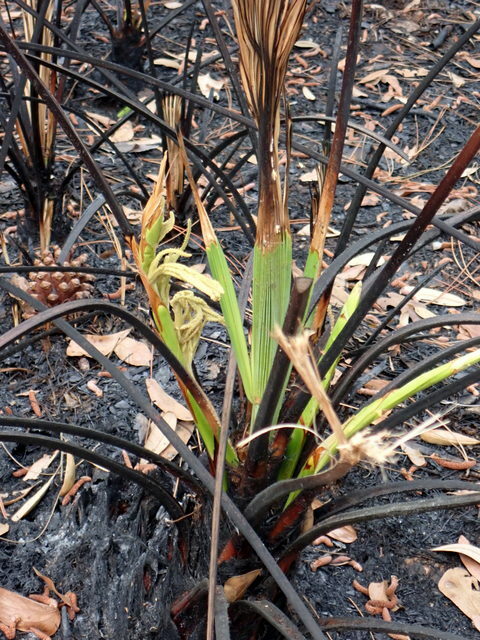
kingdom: Plantae
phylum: Tracheophyta
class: Liliopsida
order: Arecales
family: Arecaceae
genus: Serenoa
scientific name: Serenoa repens
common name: Saw-palmetto
